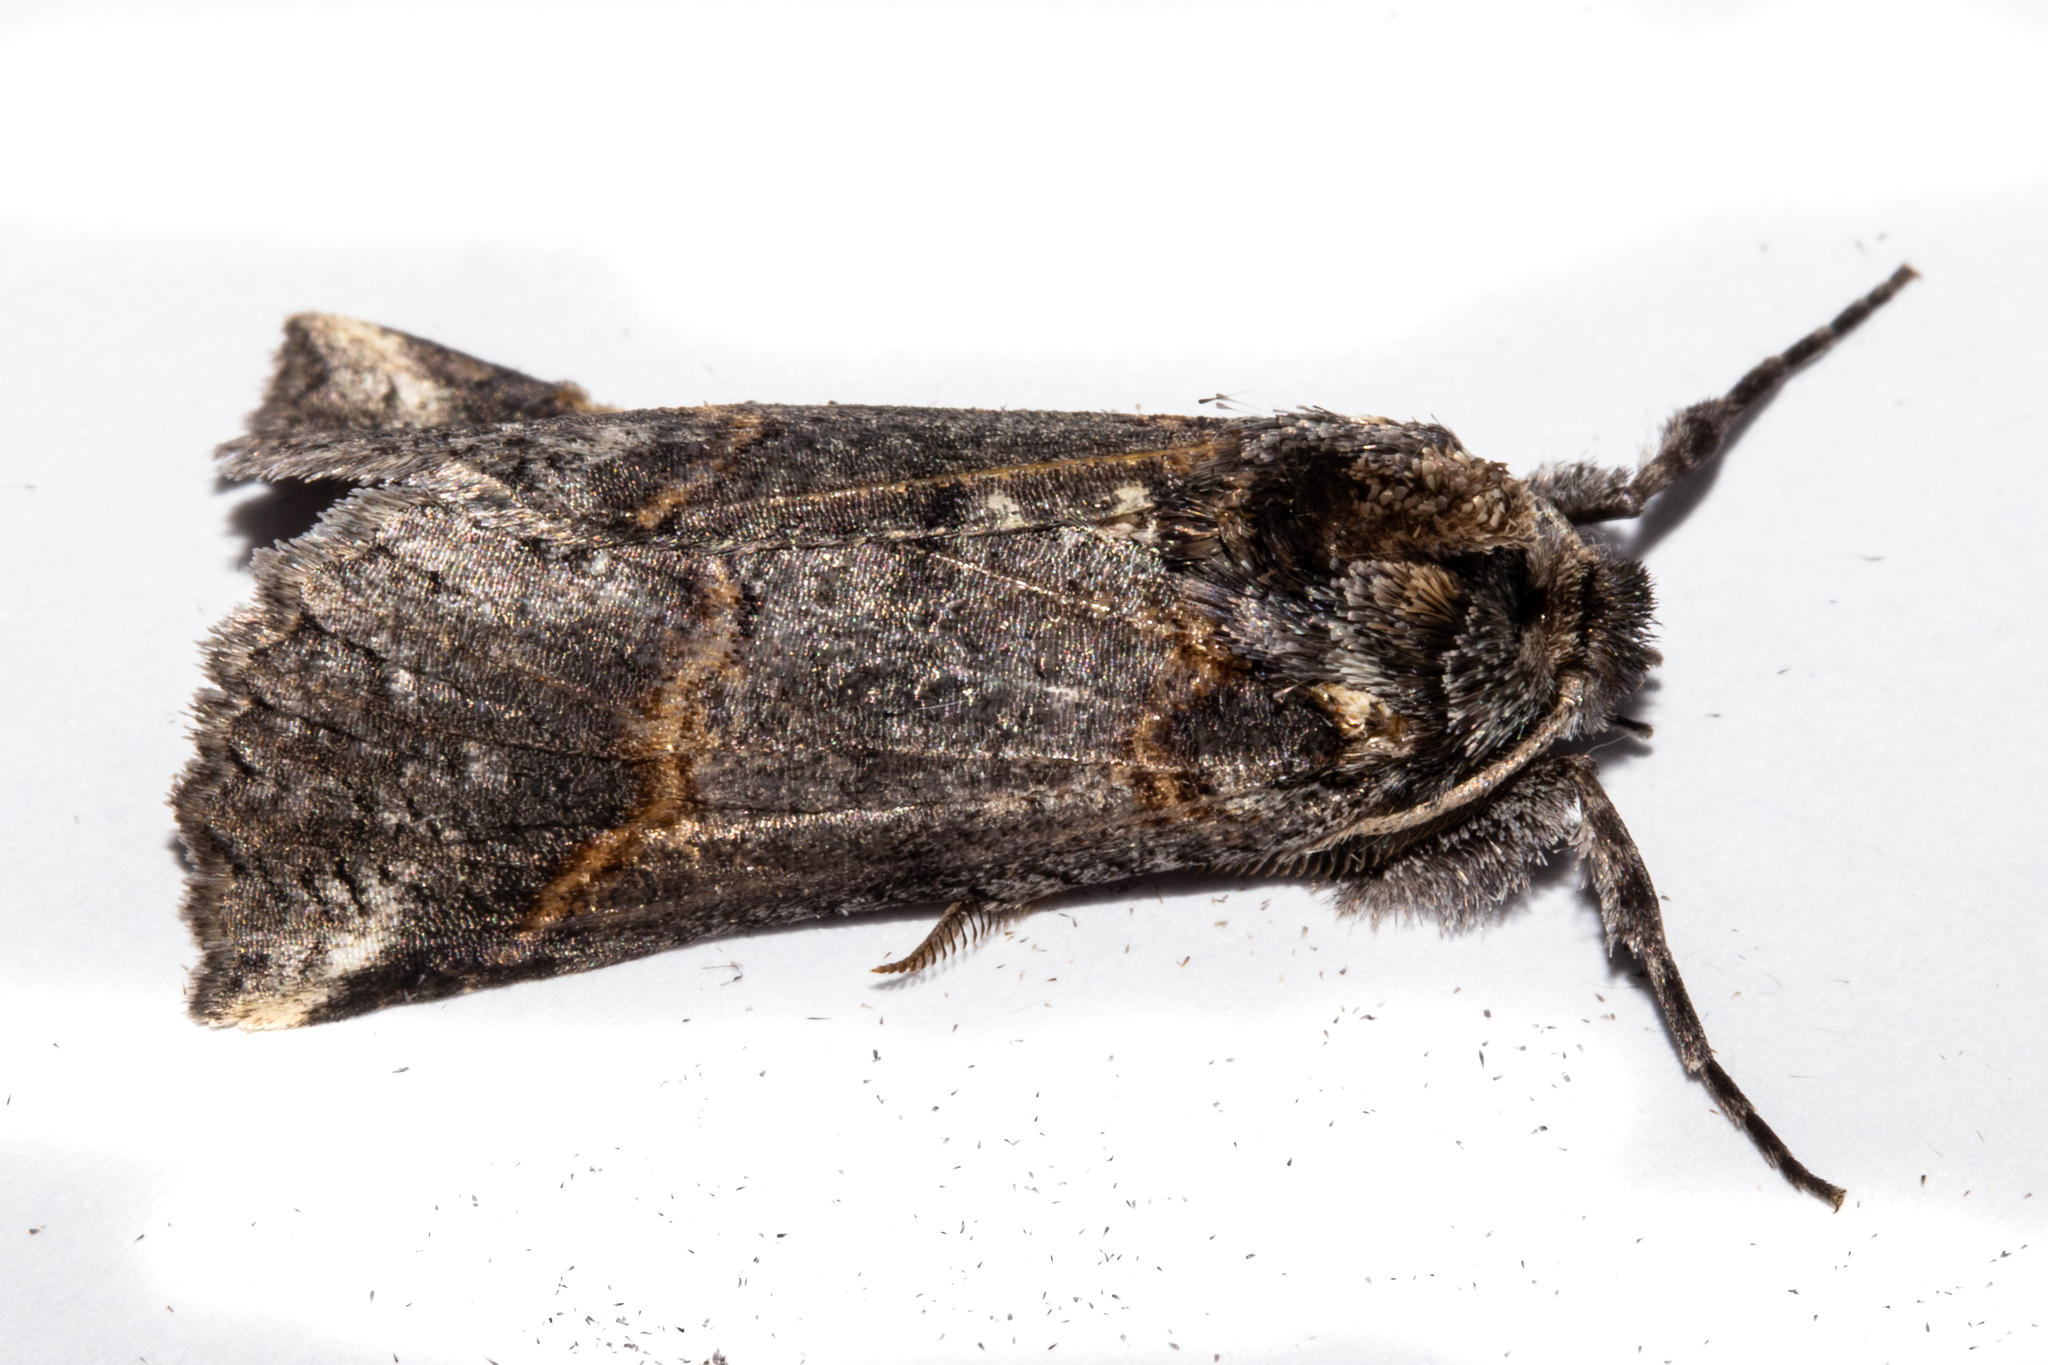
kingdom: Animalia
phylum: Arthropoda
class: Insecta
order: Lepidoptera
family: Geometridae
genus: Declana
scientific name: Declana
